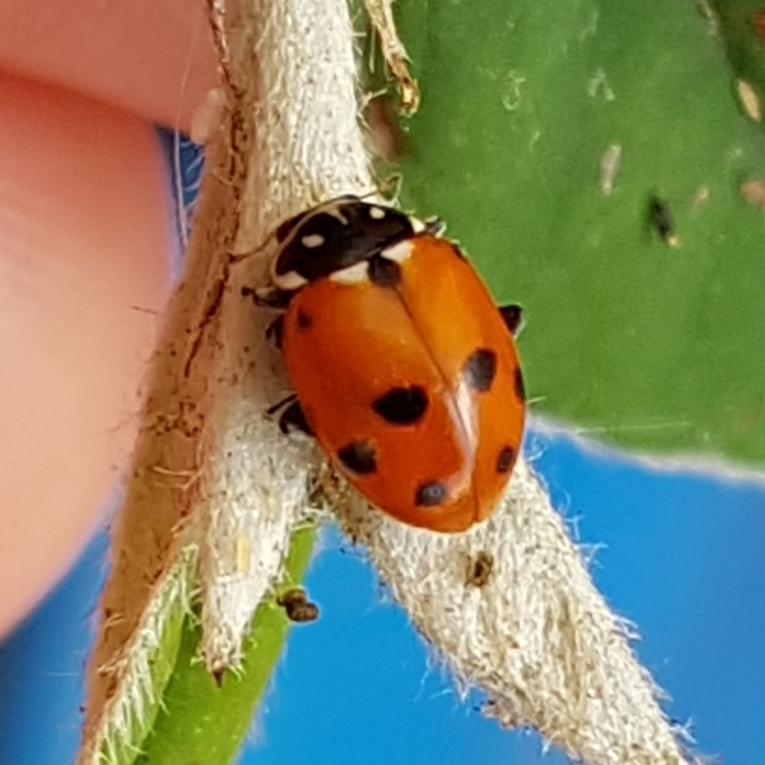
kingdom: Animalia
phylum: Arthropoda
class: Insecta
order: Coleoptera
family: Coccinellidae
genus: Hippodamia
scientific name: Hippodamia variegata
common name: Ladybird beetle
